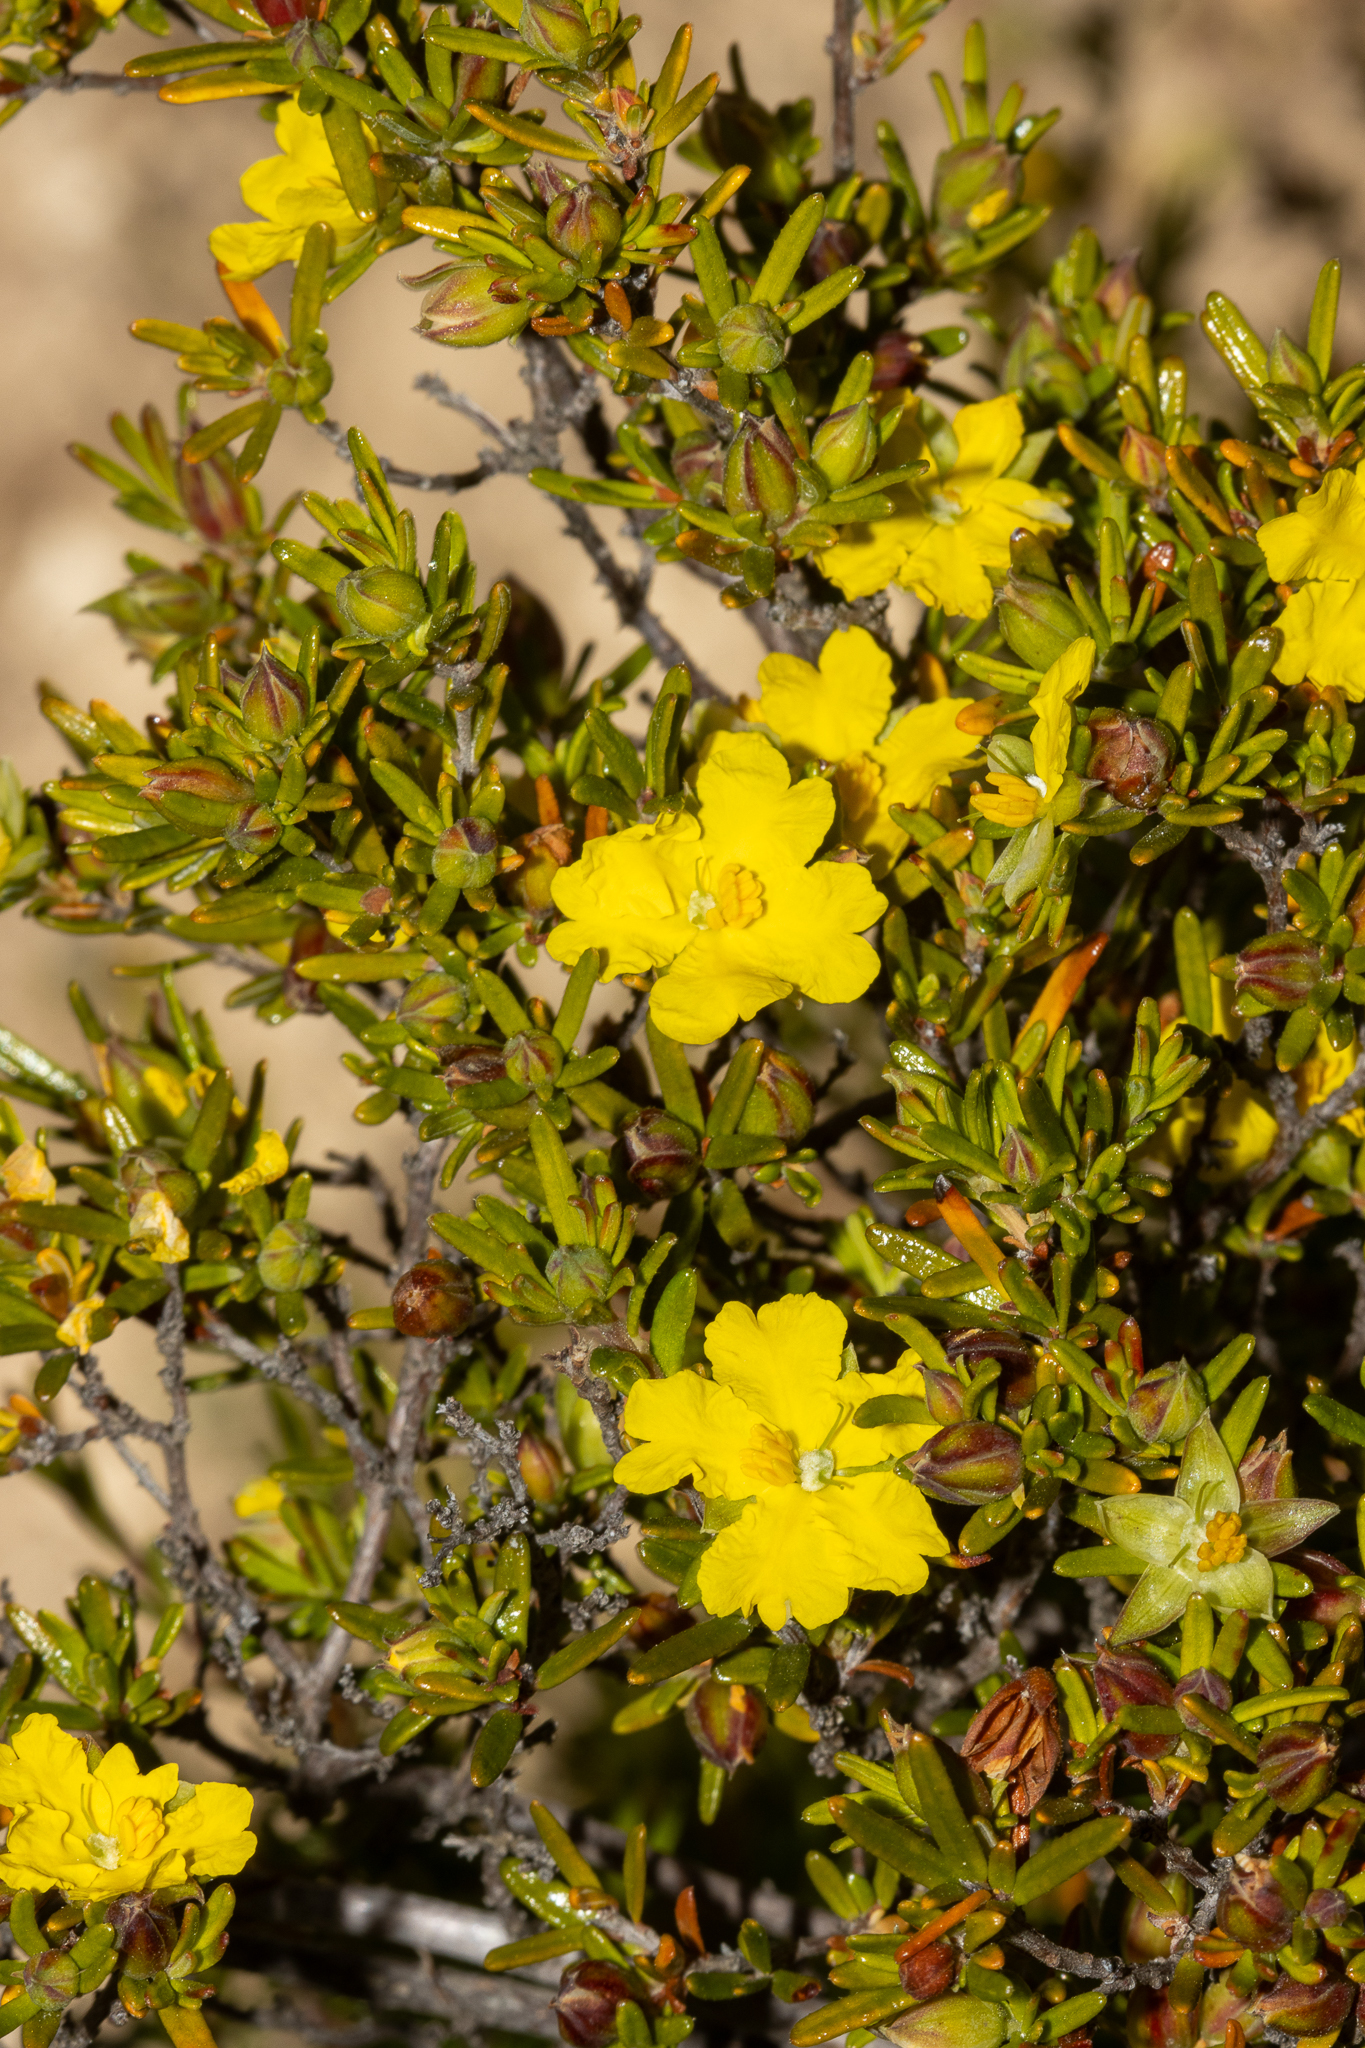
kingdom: Plantae
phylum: Tracheophyta
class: Magnoliopsida
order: Dilleniales
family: Dilleniaceae
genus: Hibbertia
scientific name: Hibbertia riparia
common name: Erect guinea-flower
